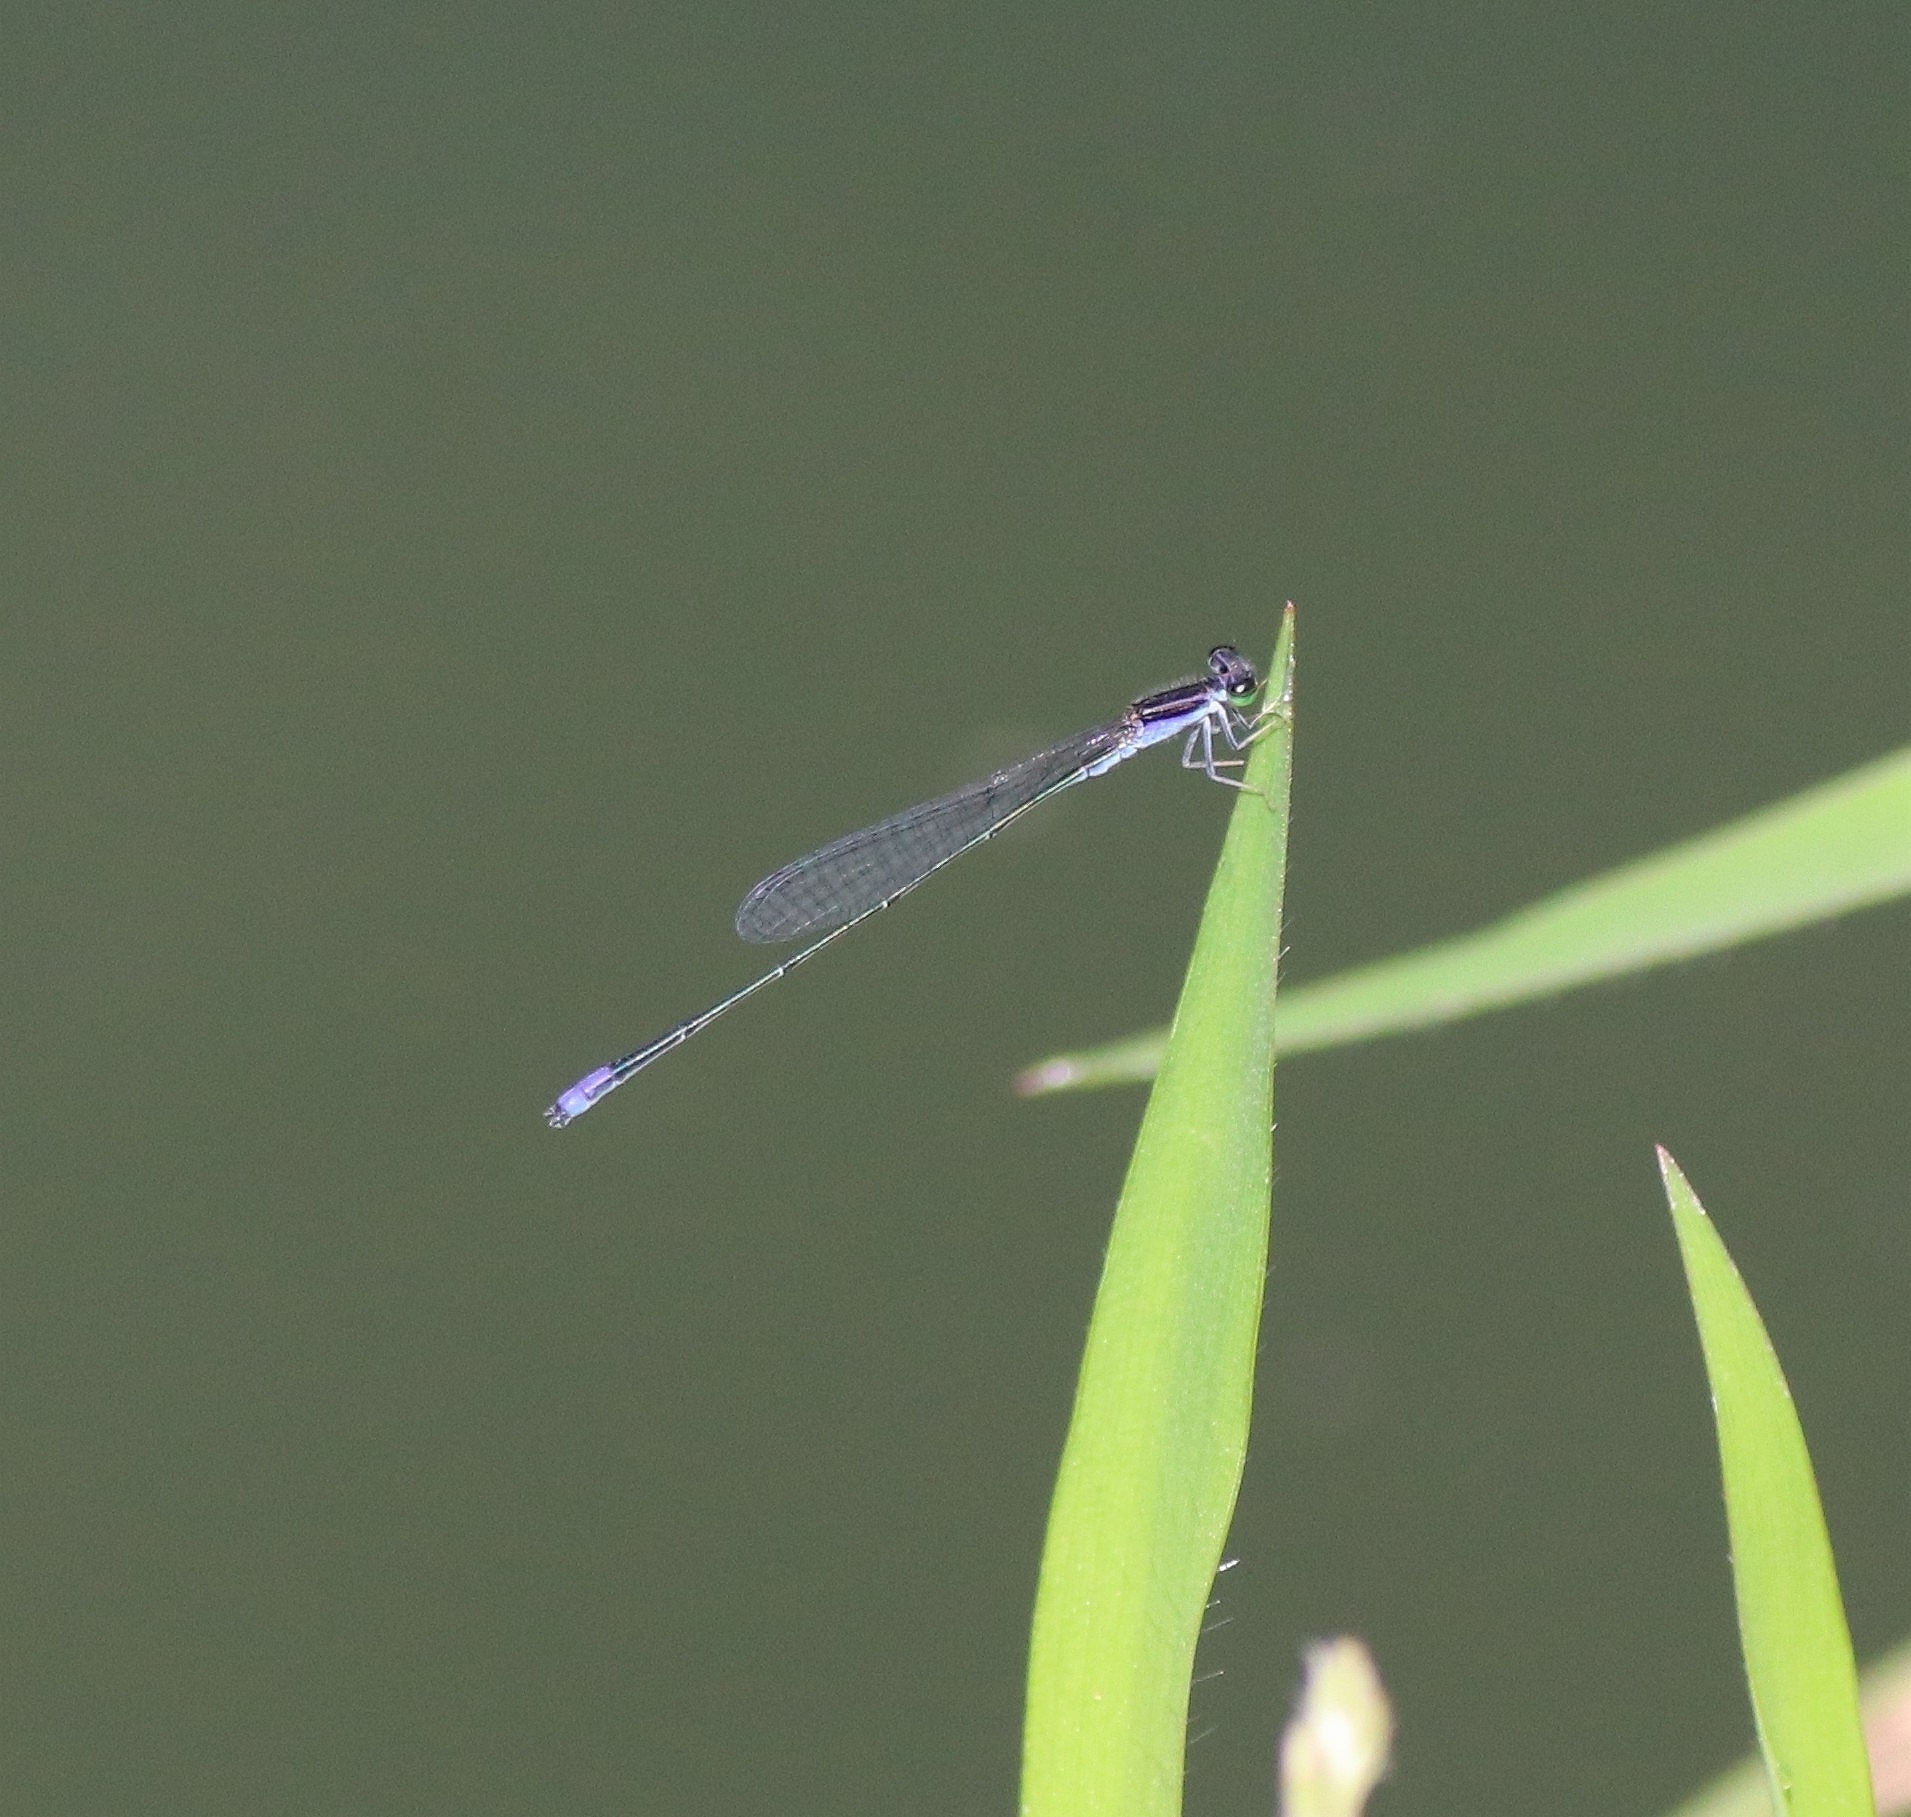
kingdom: Animalia
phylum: Arthropoda
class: Insecta
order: Odonata
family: Coenagrionidae
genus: Aciagrion
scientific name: Aciagrion approximans
